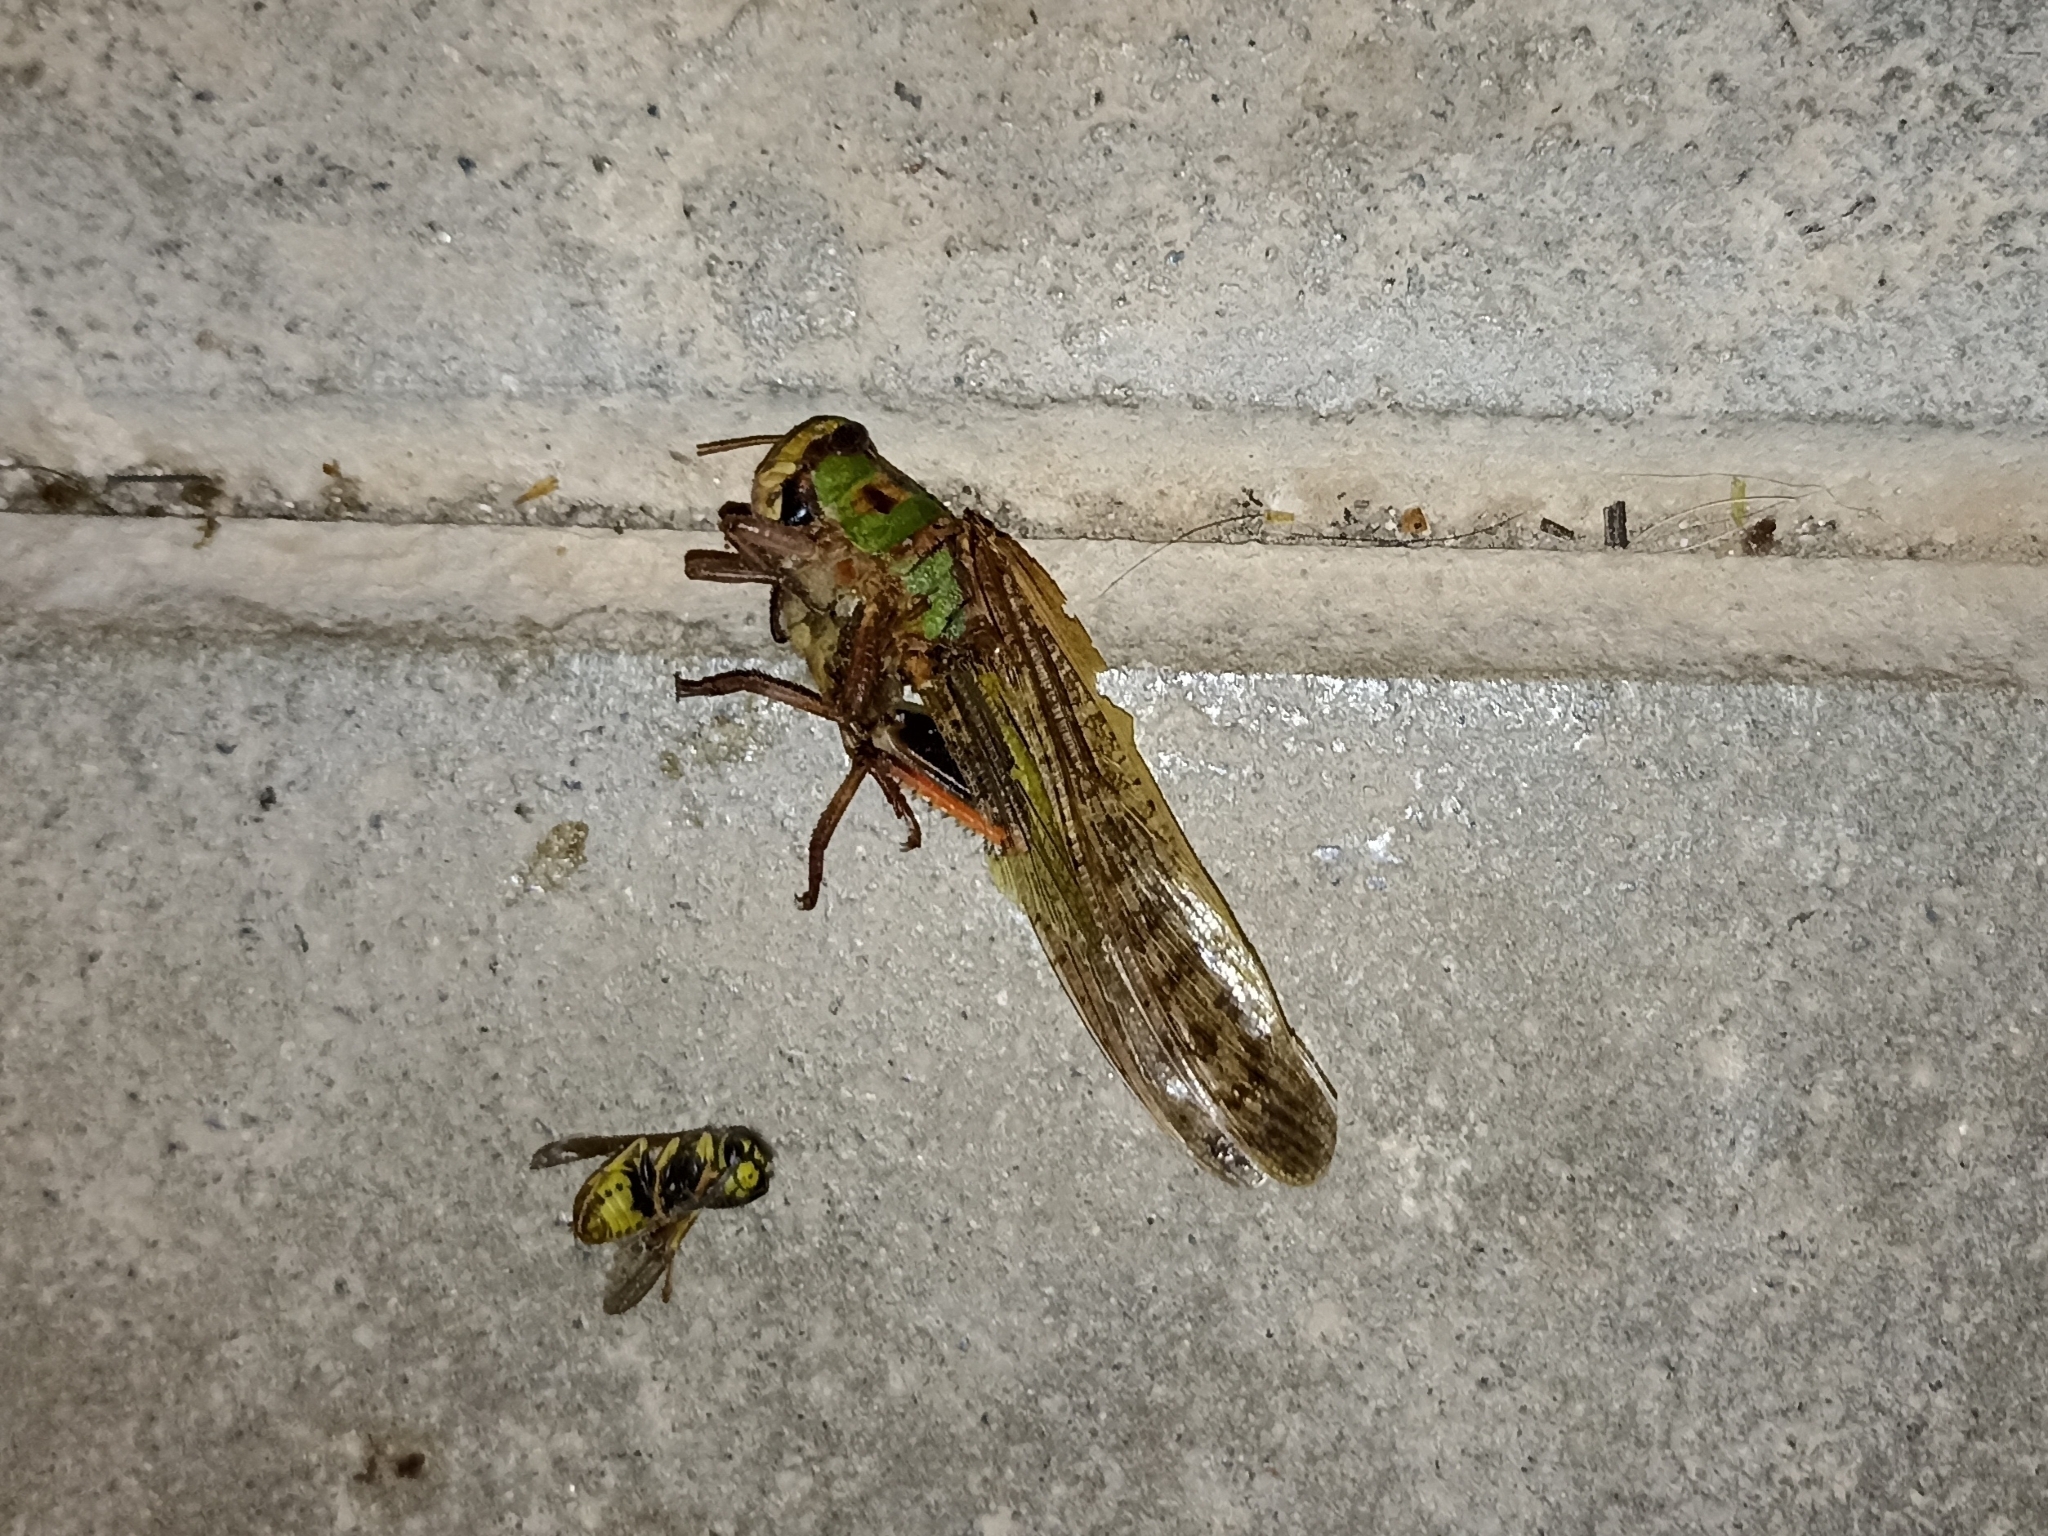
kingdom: Animalia
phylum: Arthropoda
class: Insecta
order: Orthoptera
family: Acrididae
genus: Locusta
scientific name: Locusta migratoria
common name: Migratory locust
